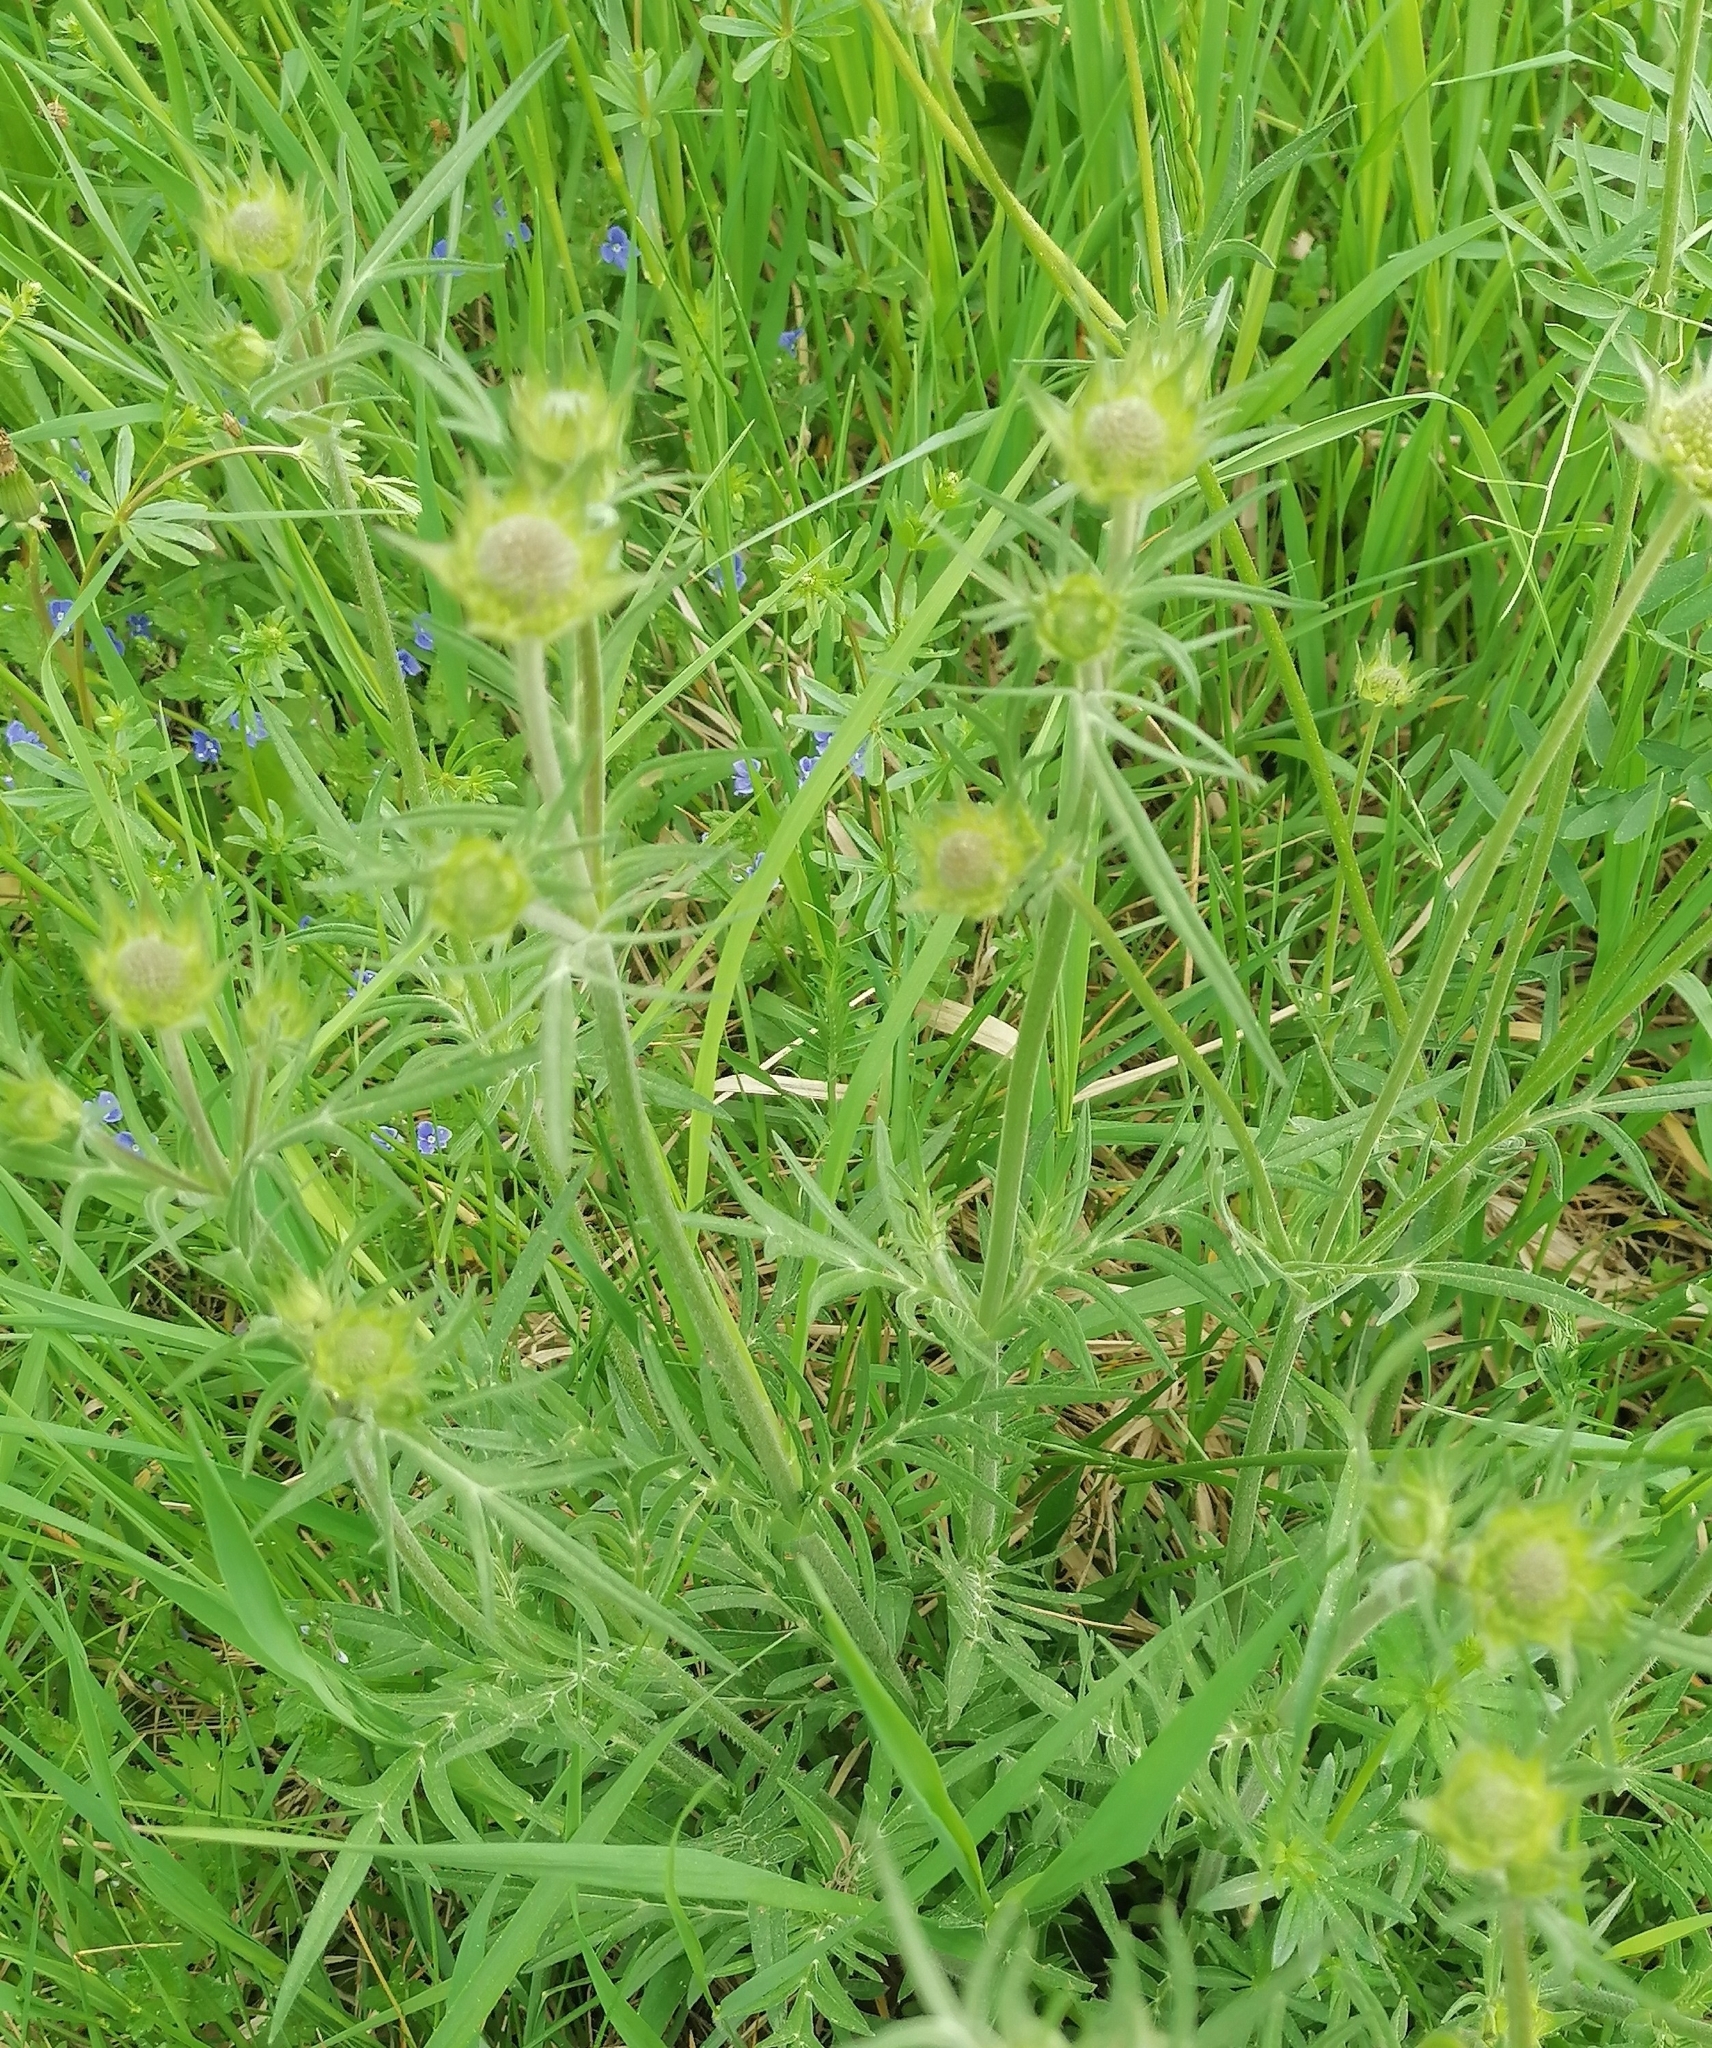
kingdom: Plantae
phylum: Tracheophyta
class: Magnoliopsida
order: Dipsacales
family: Caprifoliaceae
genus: Knautia
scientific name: Knautia arvensis
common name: Field scabiosa
